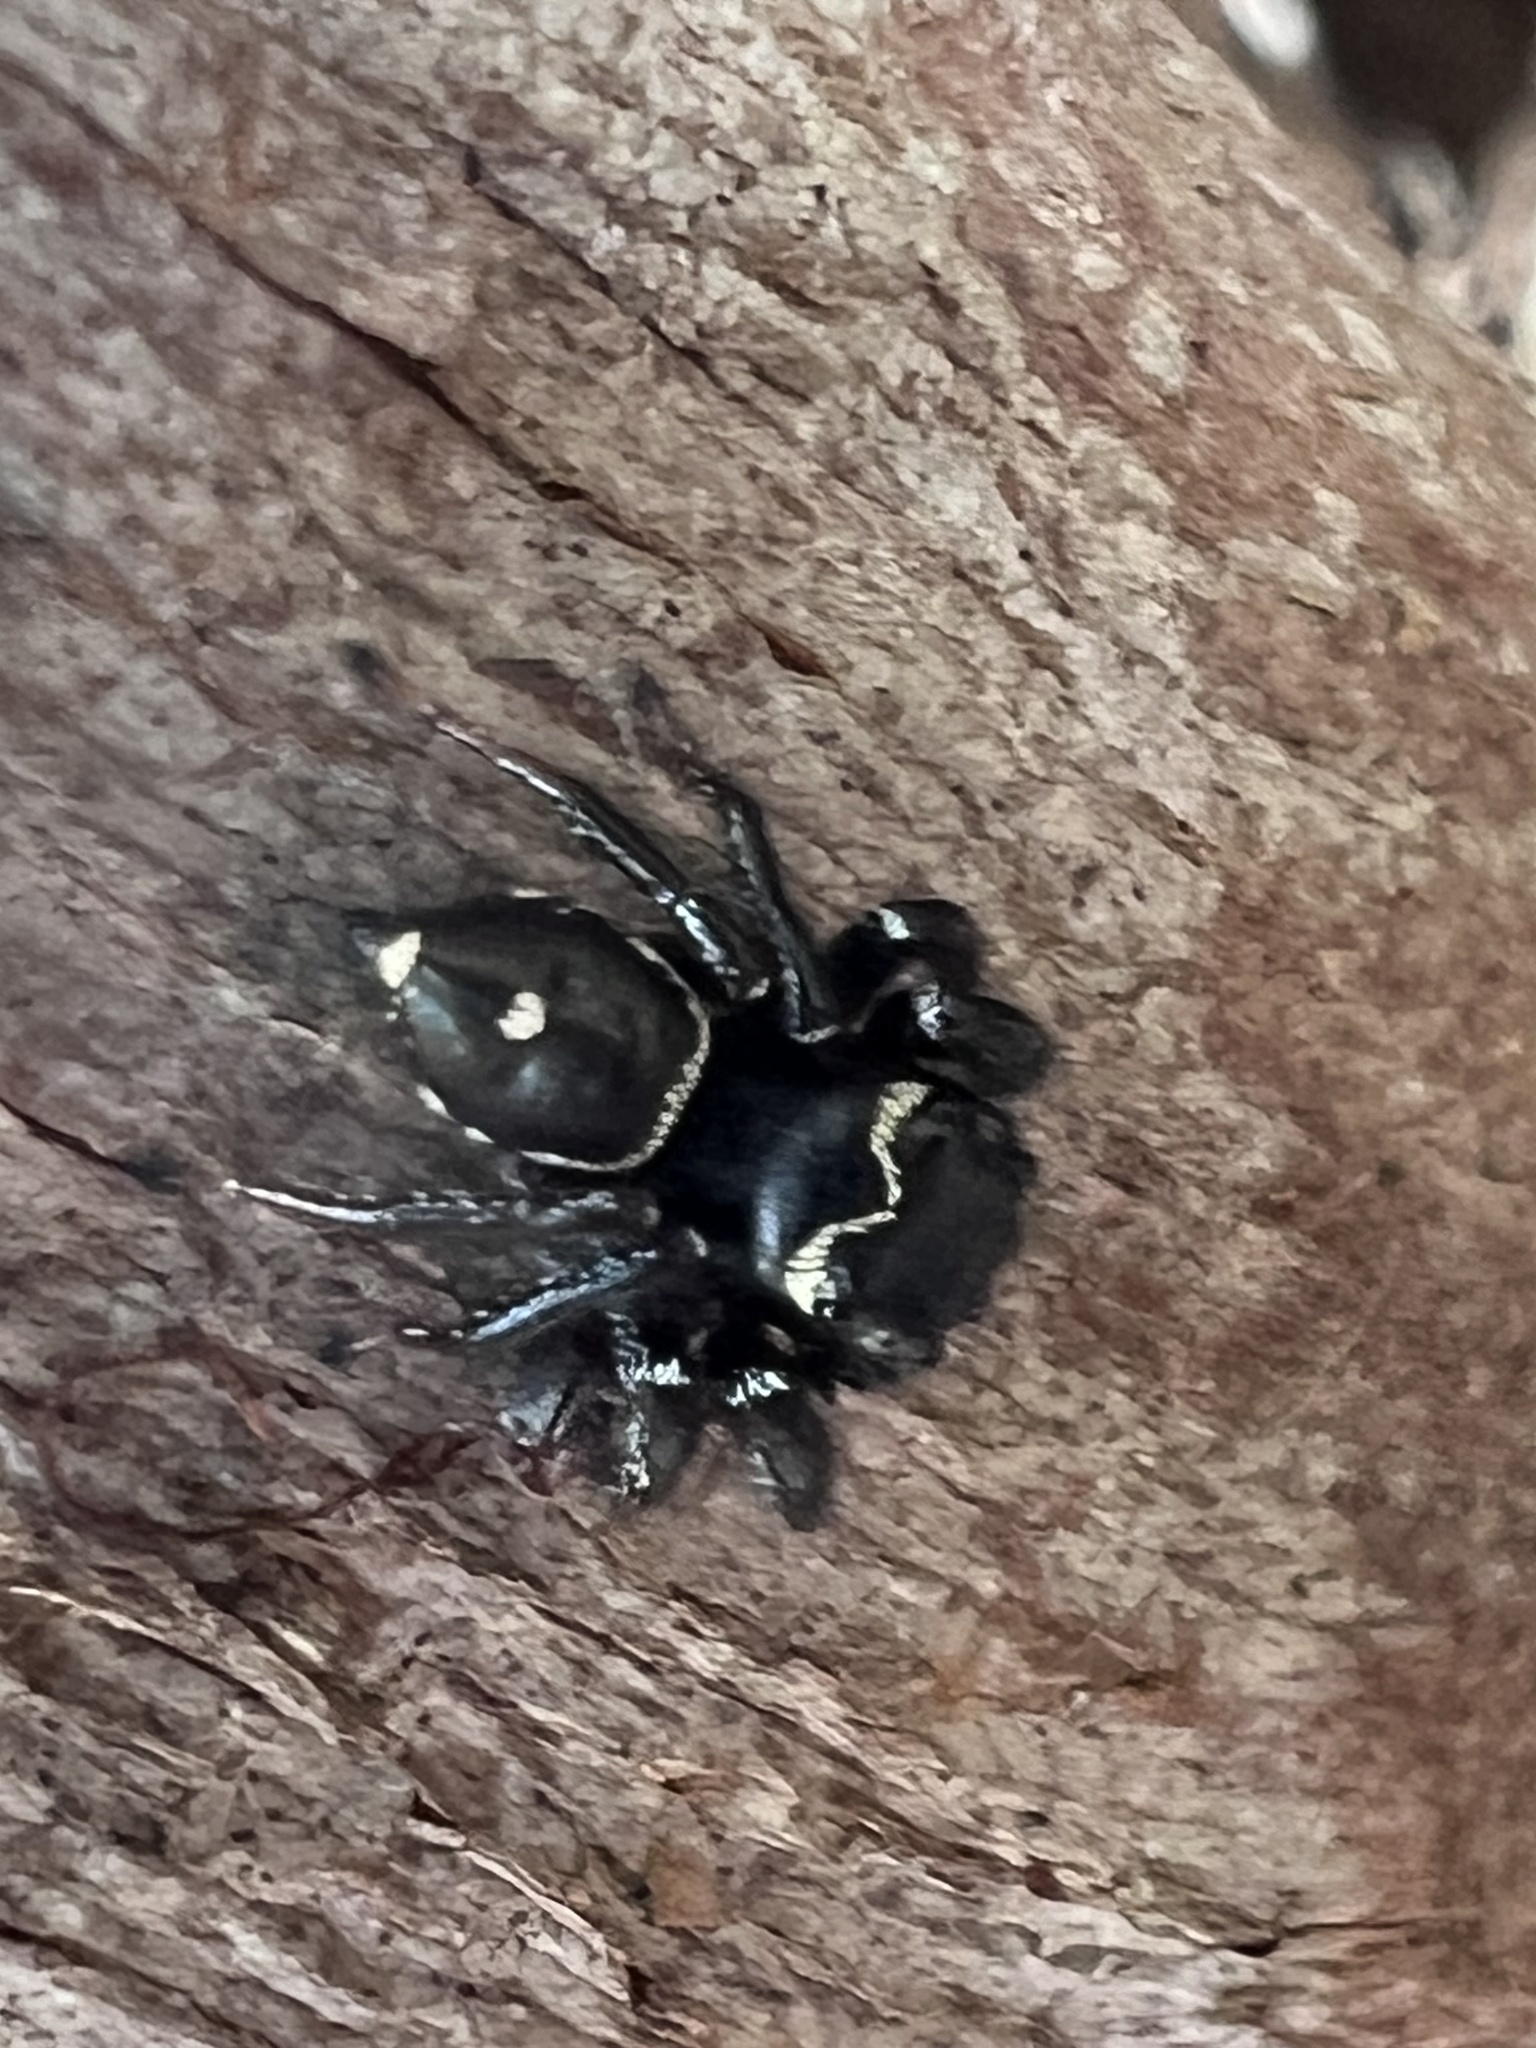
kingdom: Animalia
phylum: Arthropoda
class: Arachnida
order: Araneae
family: Salticidae
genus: Zenodorus
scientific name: Zenodorus orbiculatus
